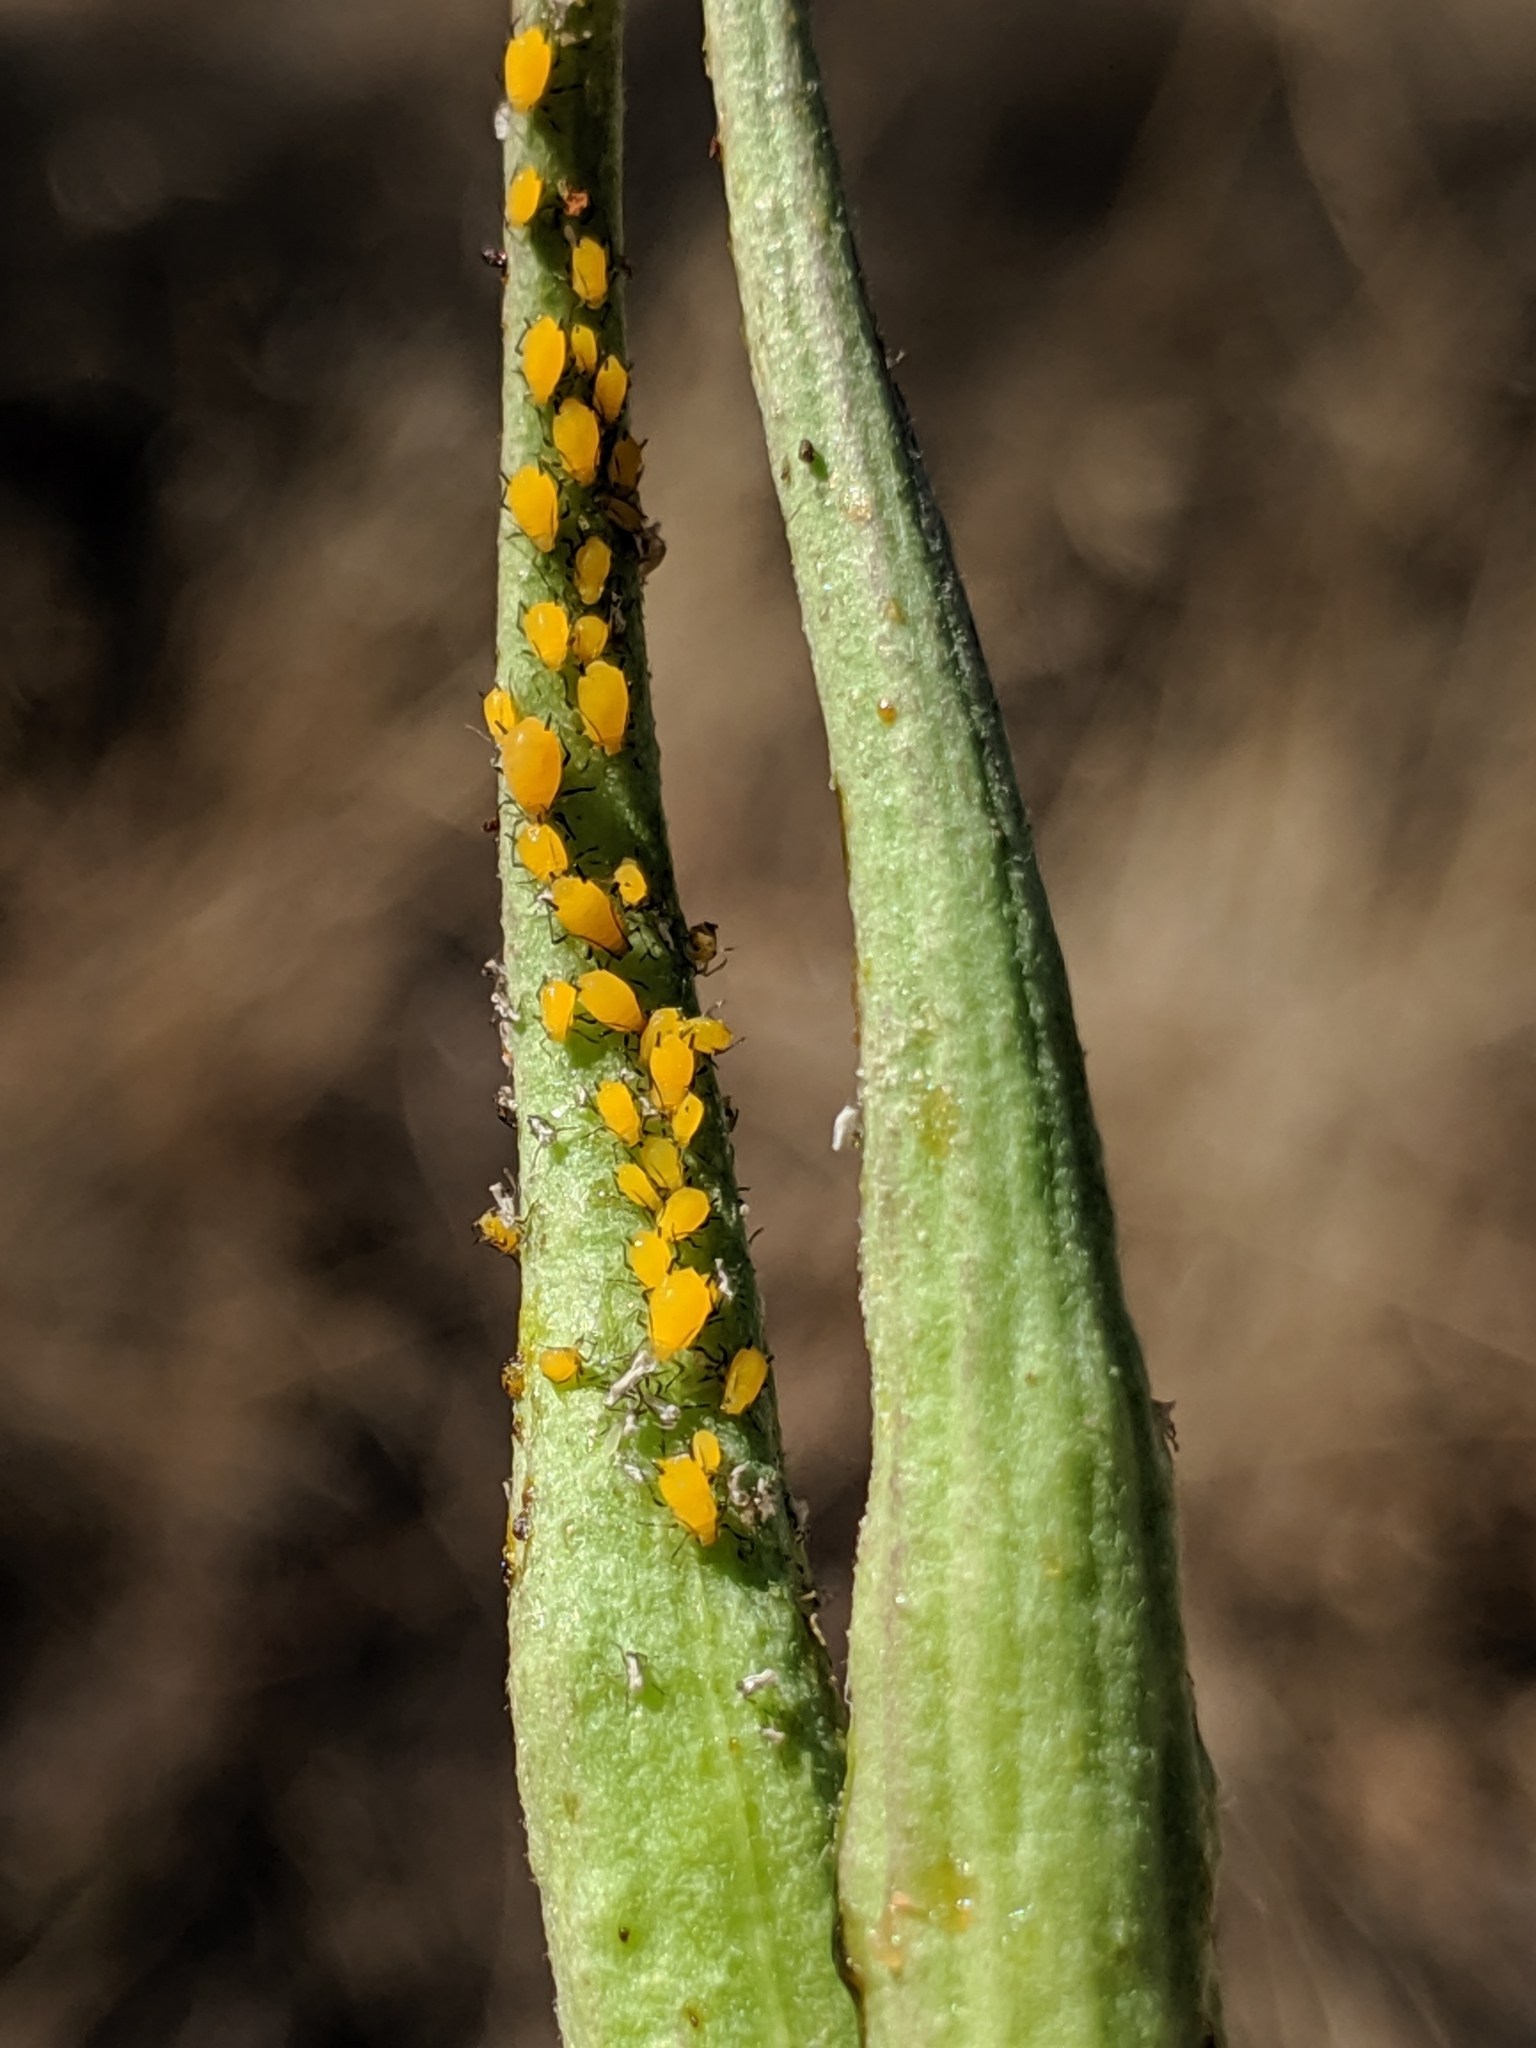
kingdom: Animalia
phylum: Arthropoda
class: Insecta
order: Hemiptera
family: Aphididae
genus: Aphis
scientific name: Aphis nerii
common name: Oleander aphid
